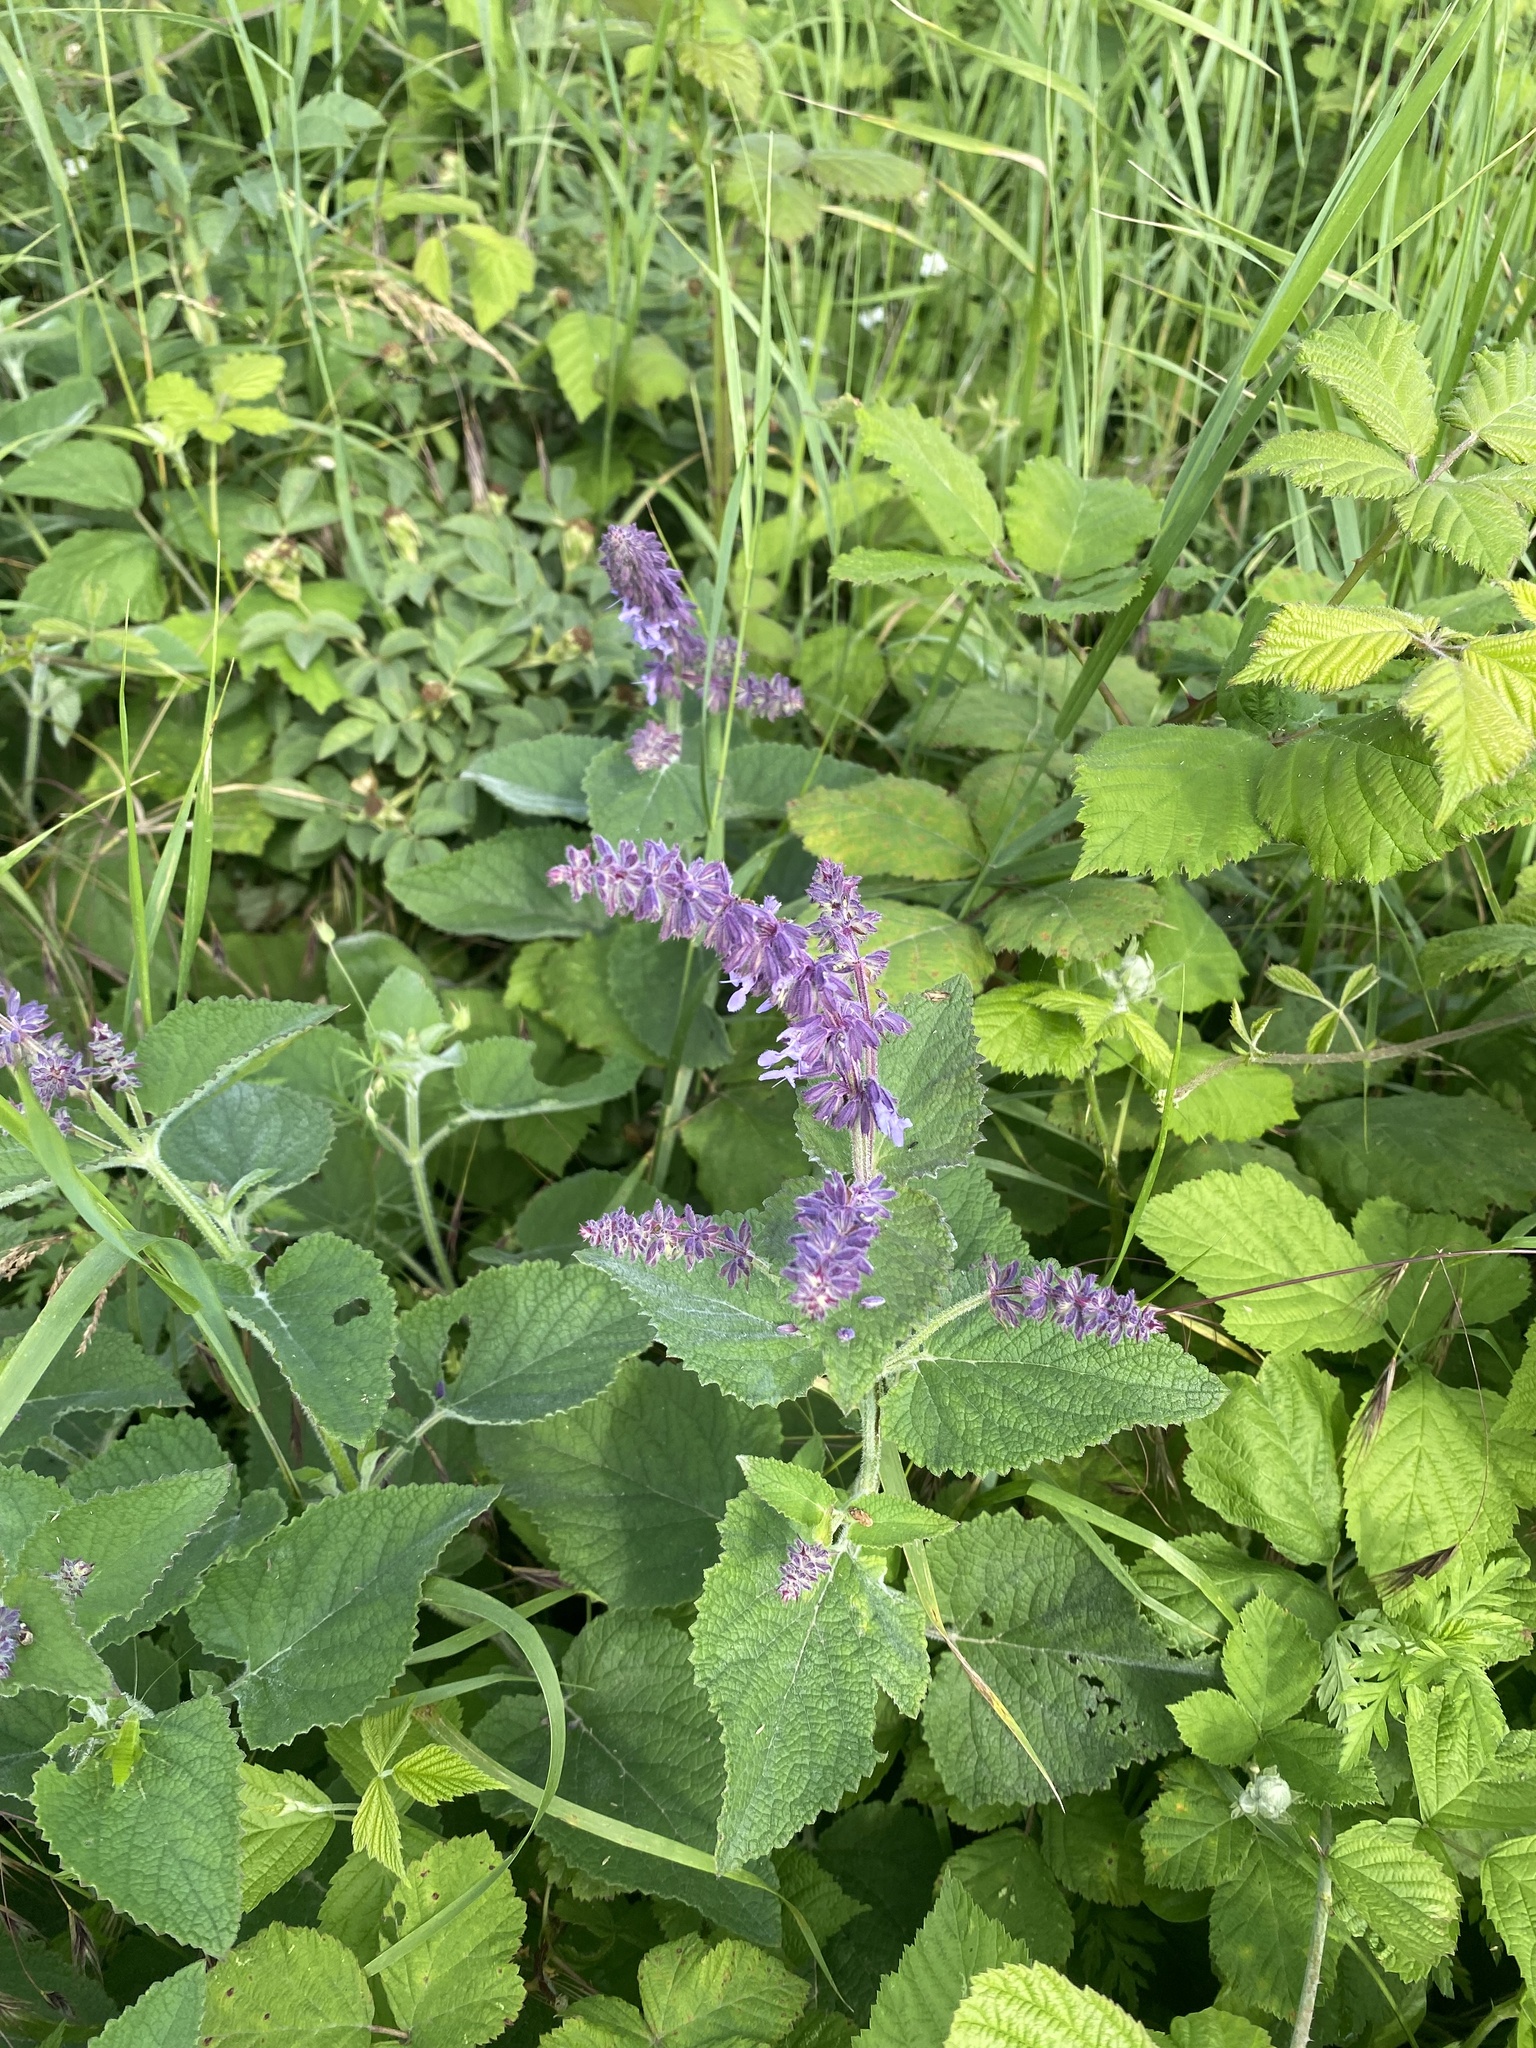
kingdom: Plantae
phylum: Tracheophyta
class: Magnoliopsida
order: Lamiales
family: Lamiaceae
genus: Salvia
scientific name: Salvia verticillata
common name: Whorled clary
